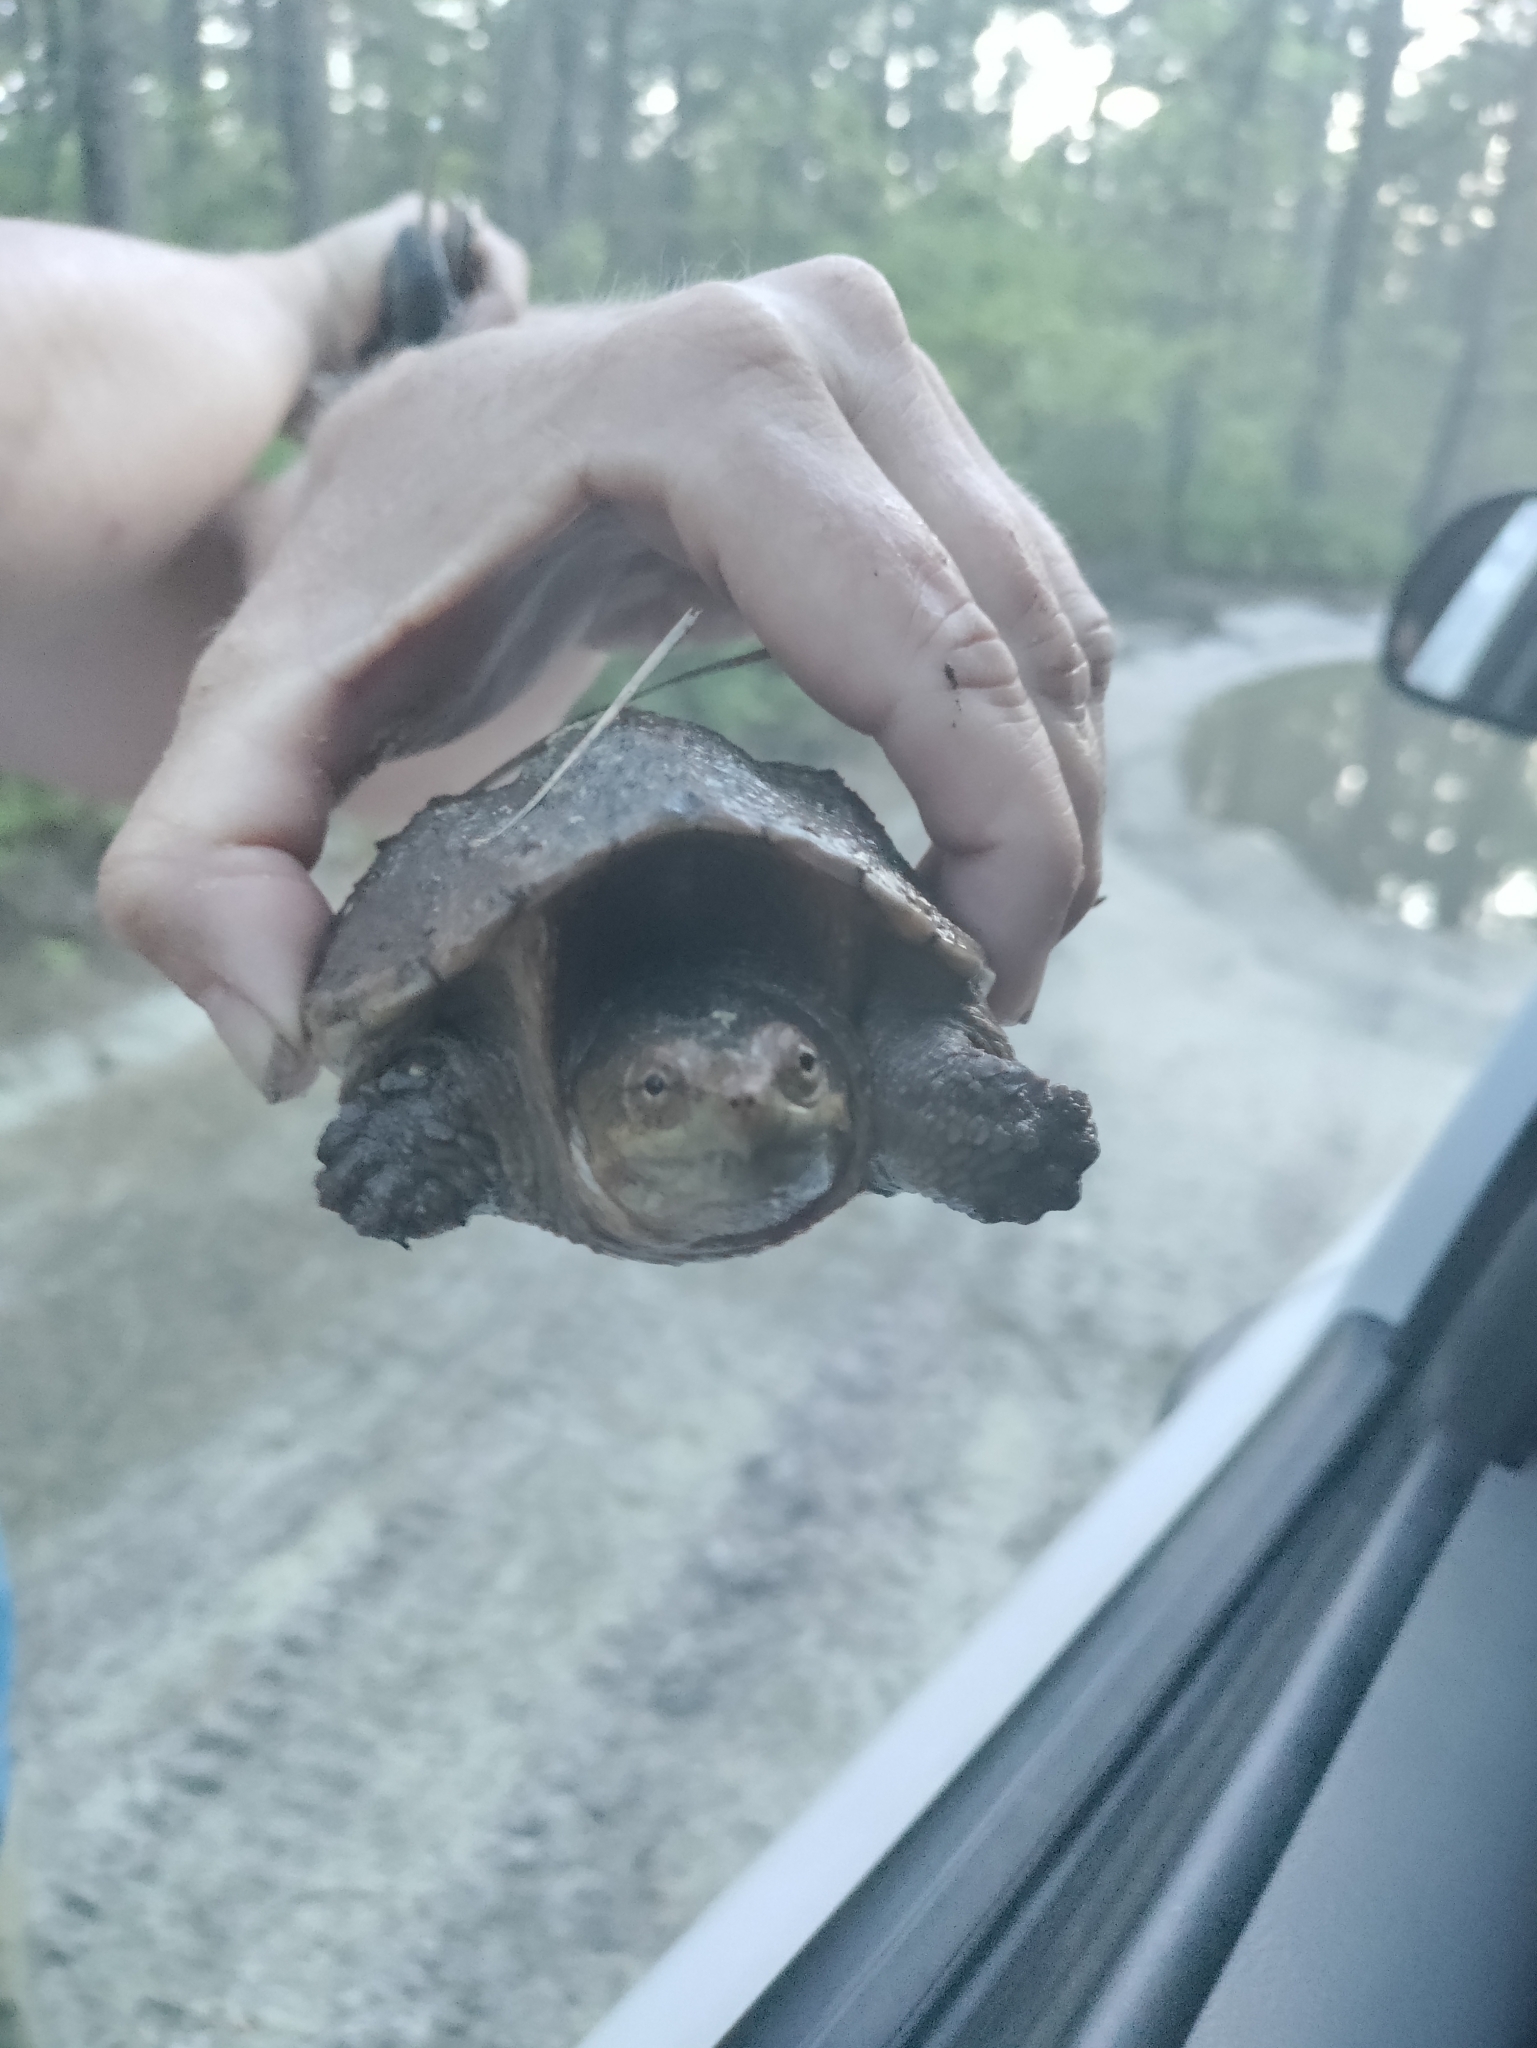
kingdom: Animalia
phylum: Chordata
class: Testudines
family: Chelydridae
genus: Chelydra
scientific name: Chelydra serpentina
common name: Common snapping turtle
